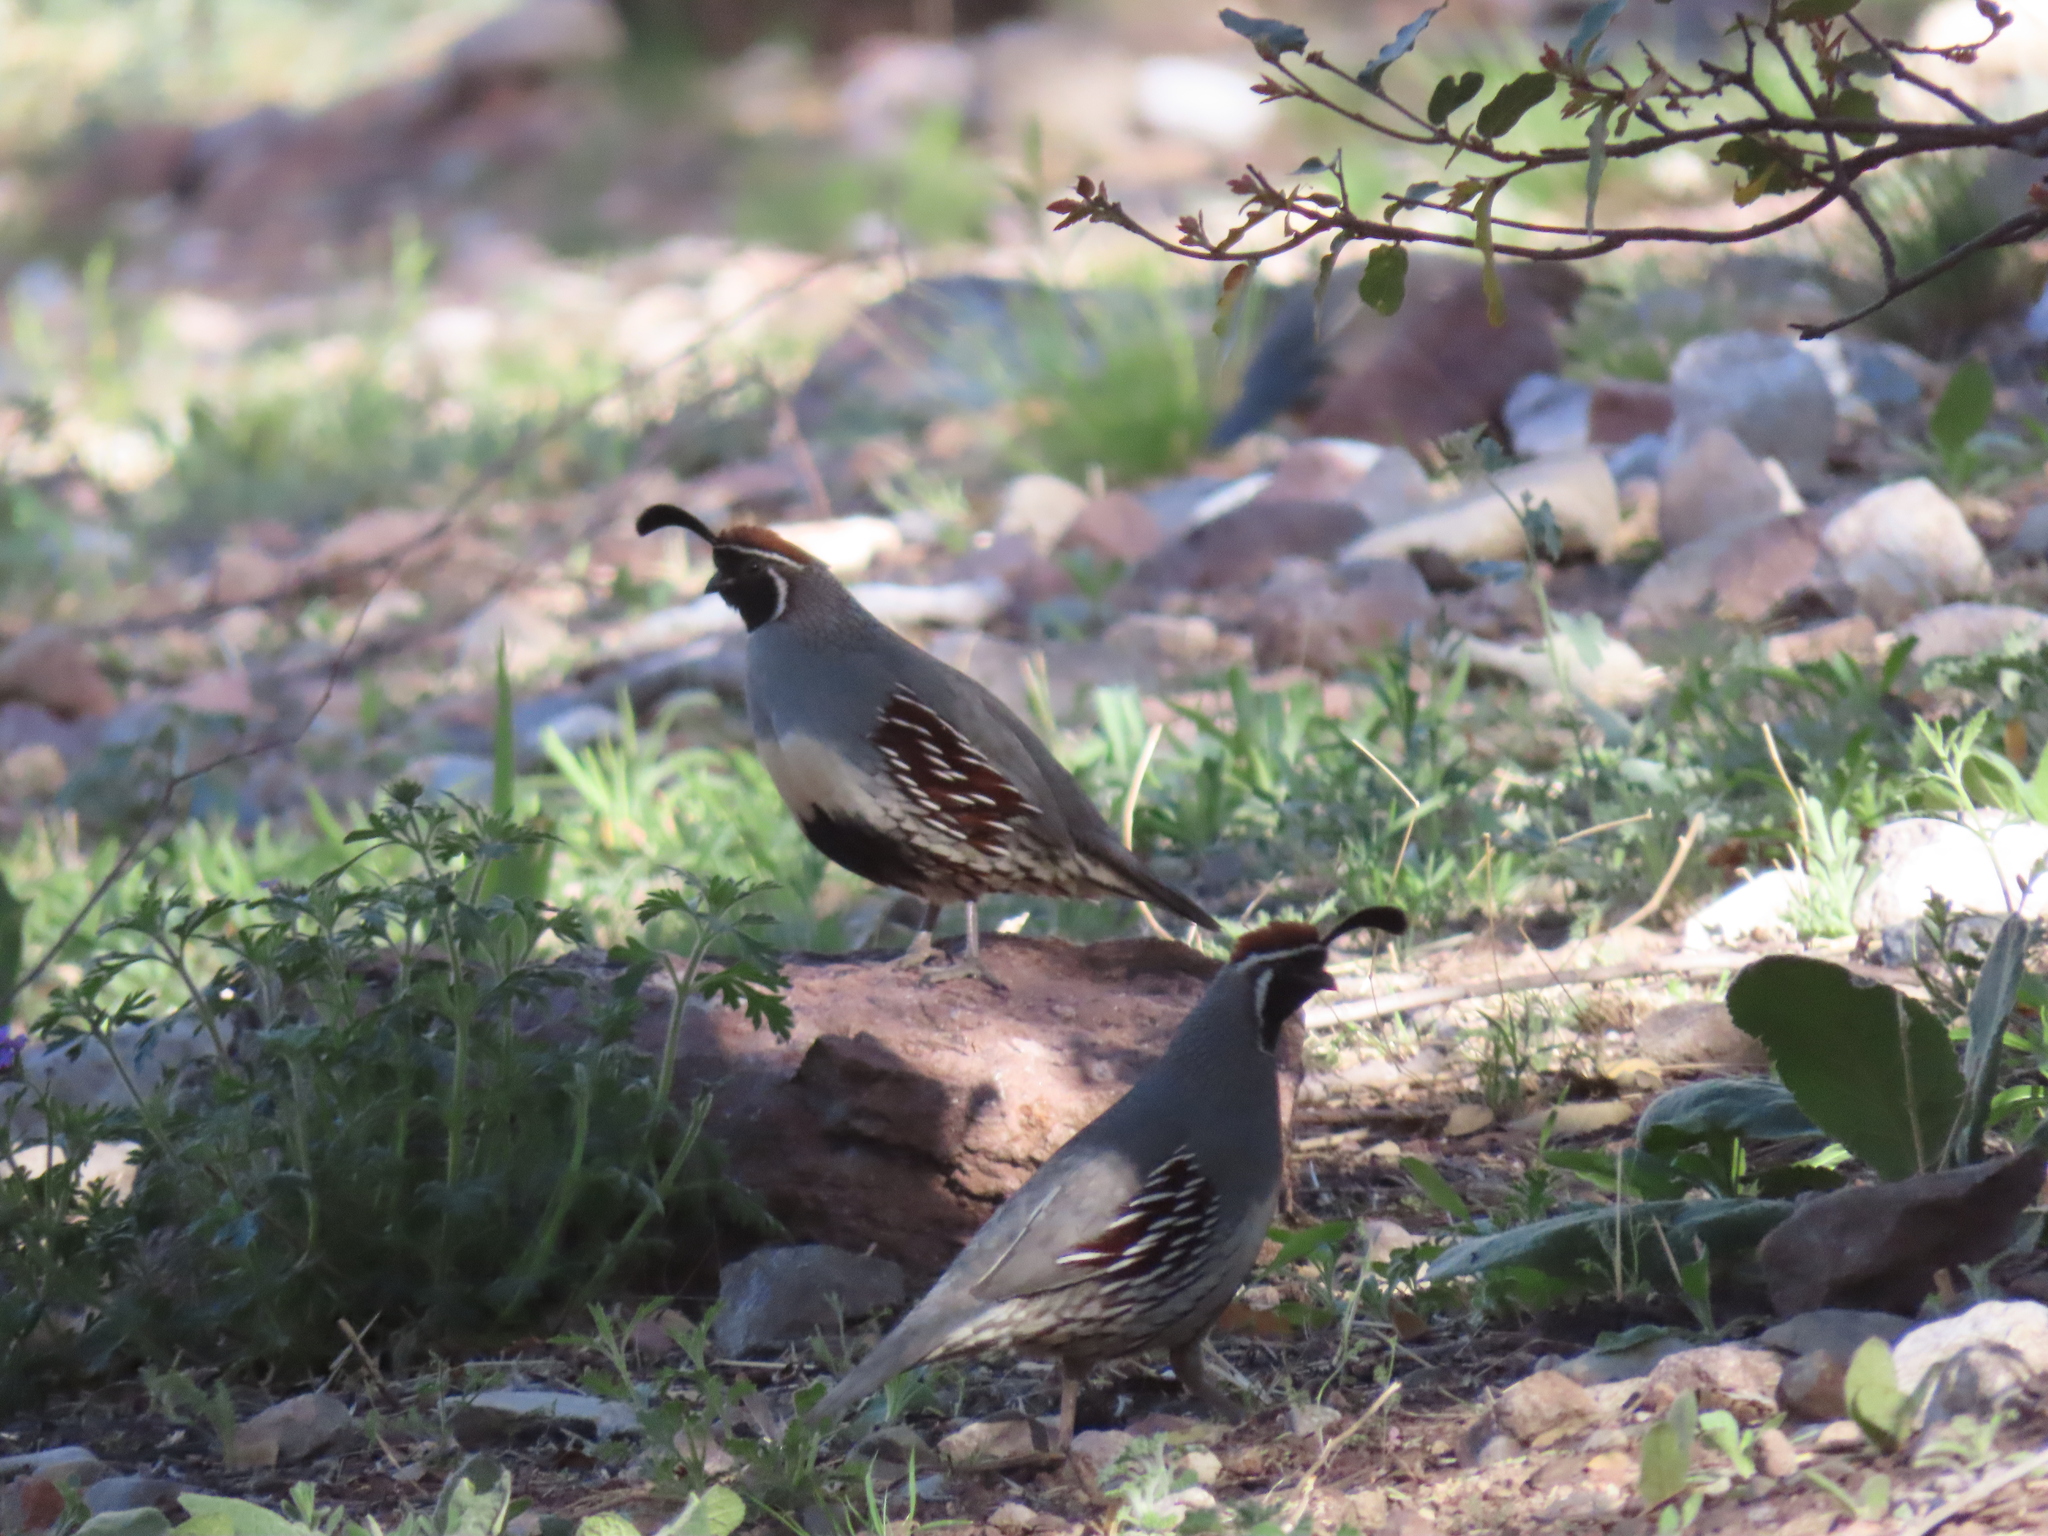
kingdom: Animalia
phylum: Chordata
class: Aves
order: Galliformes
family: Odontophoridae
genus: Callipepla
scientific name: Callipepla gambelii
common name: Gambel's quail
